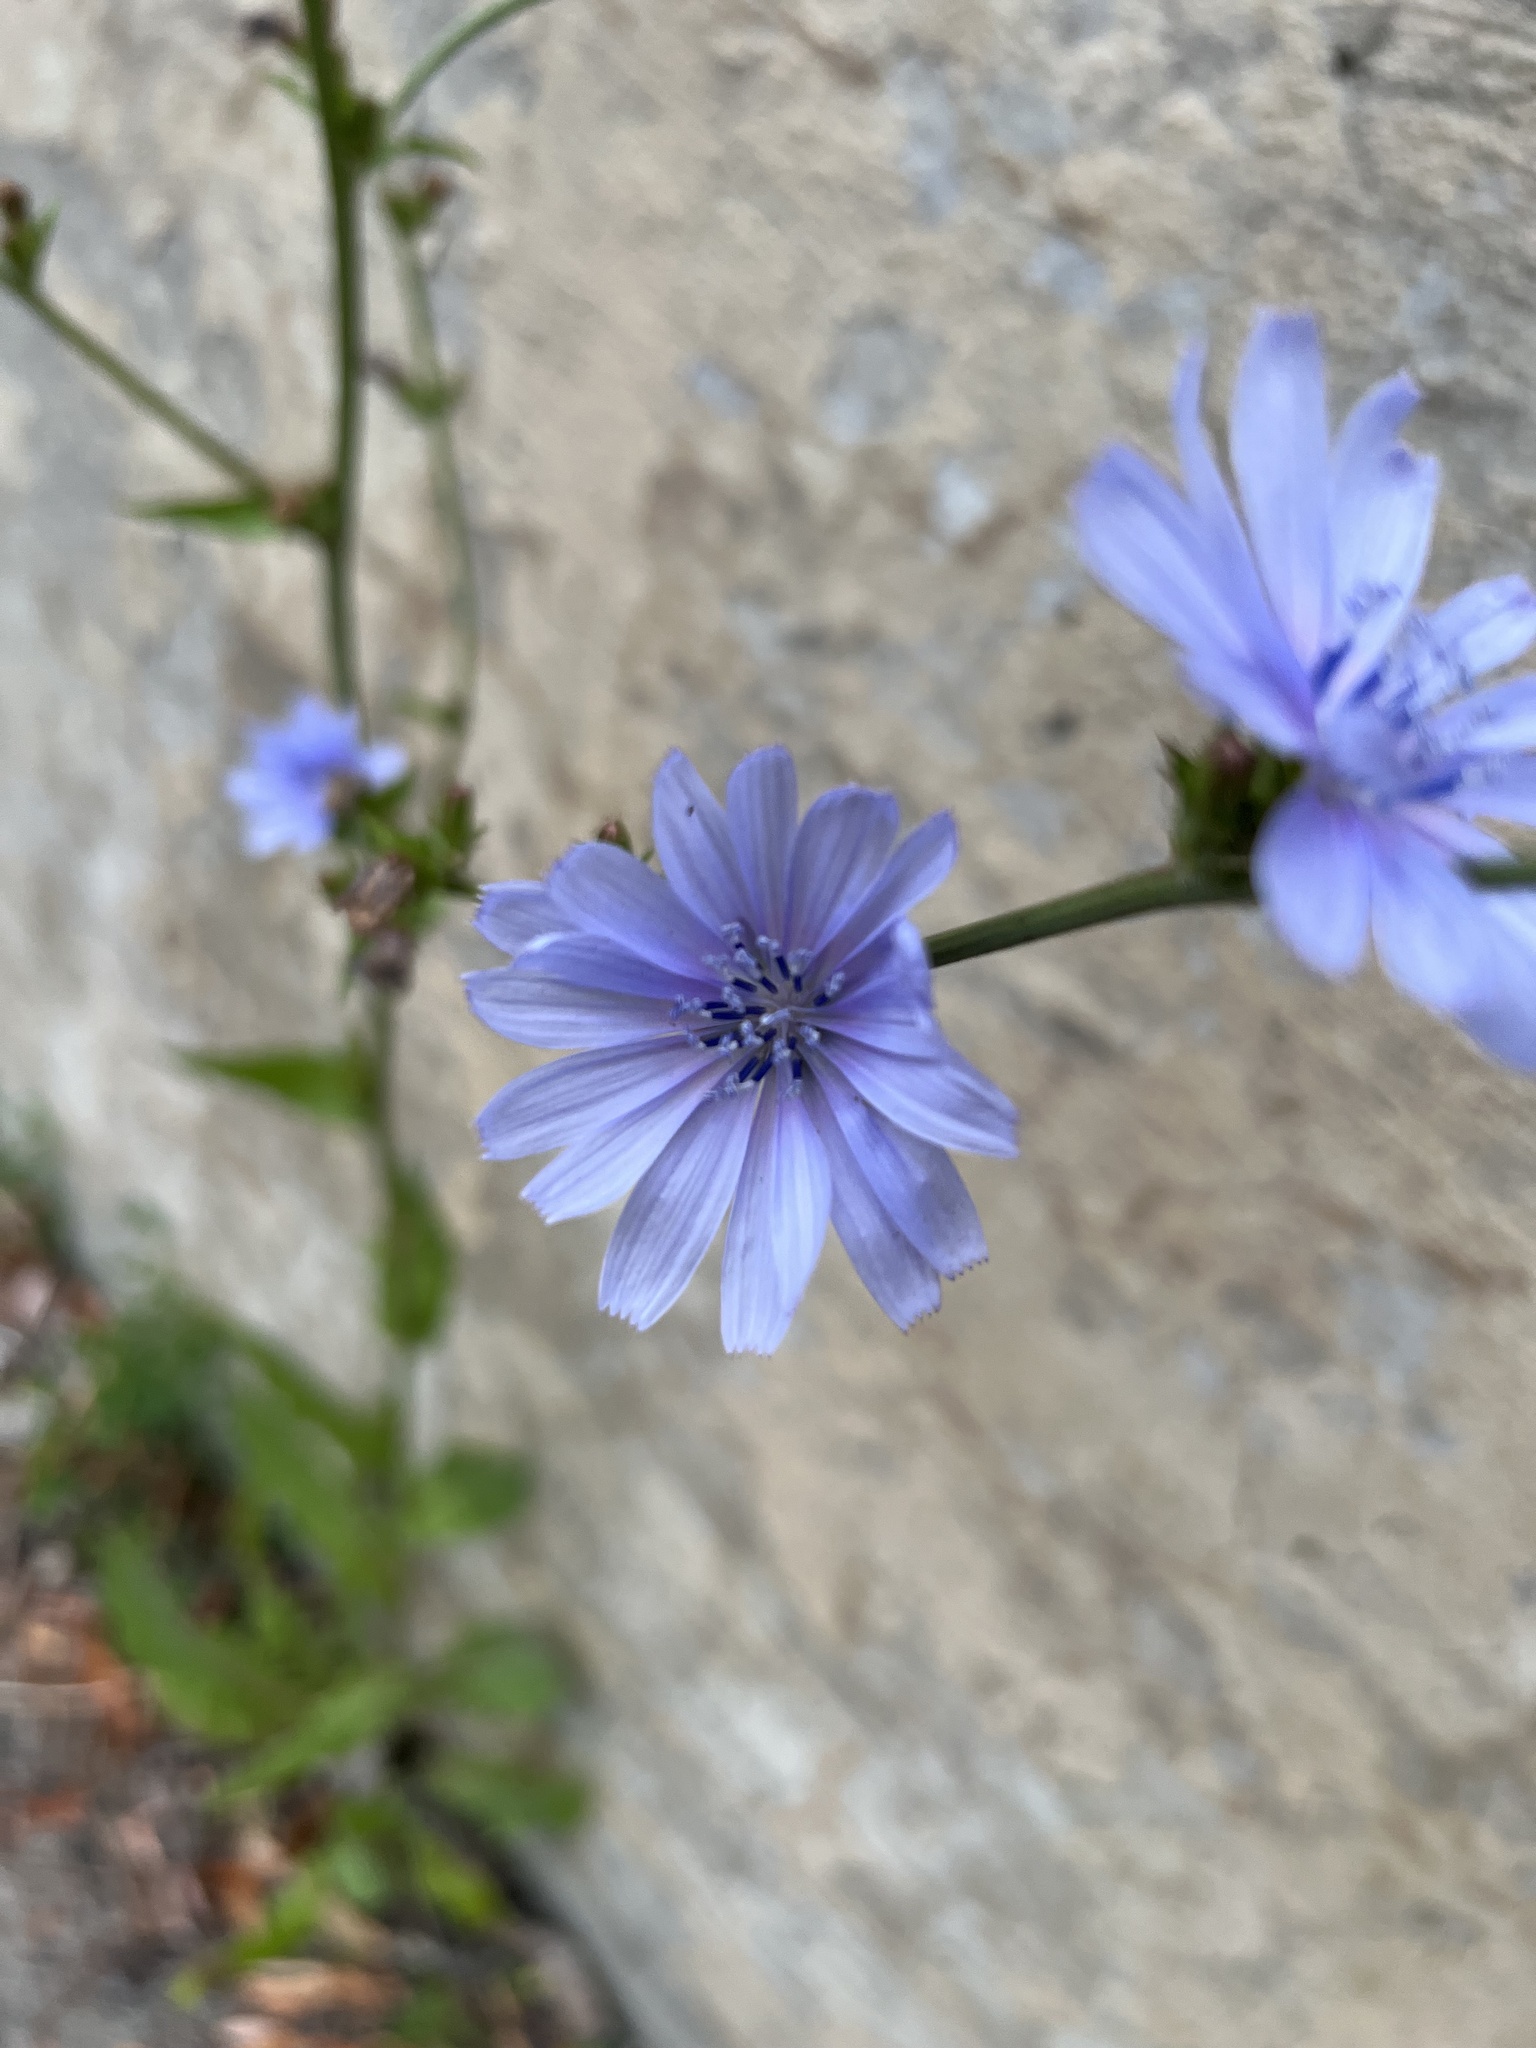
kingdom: Plantae
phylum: Tracheophyta
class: Magnoliopsida
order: Asterales
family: Asteraceae
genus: Cichorium
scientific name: Cichorium intybus
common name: Chicory
